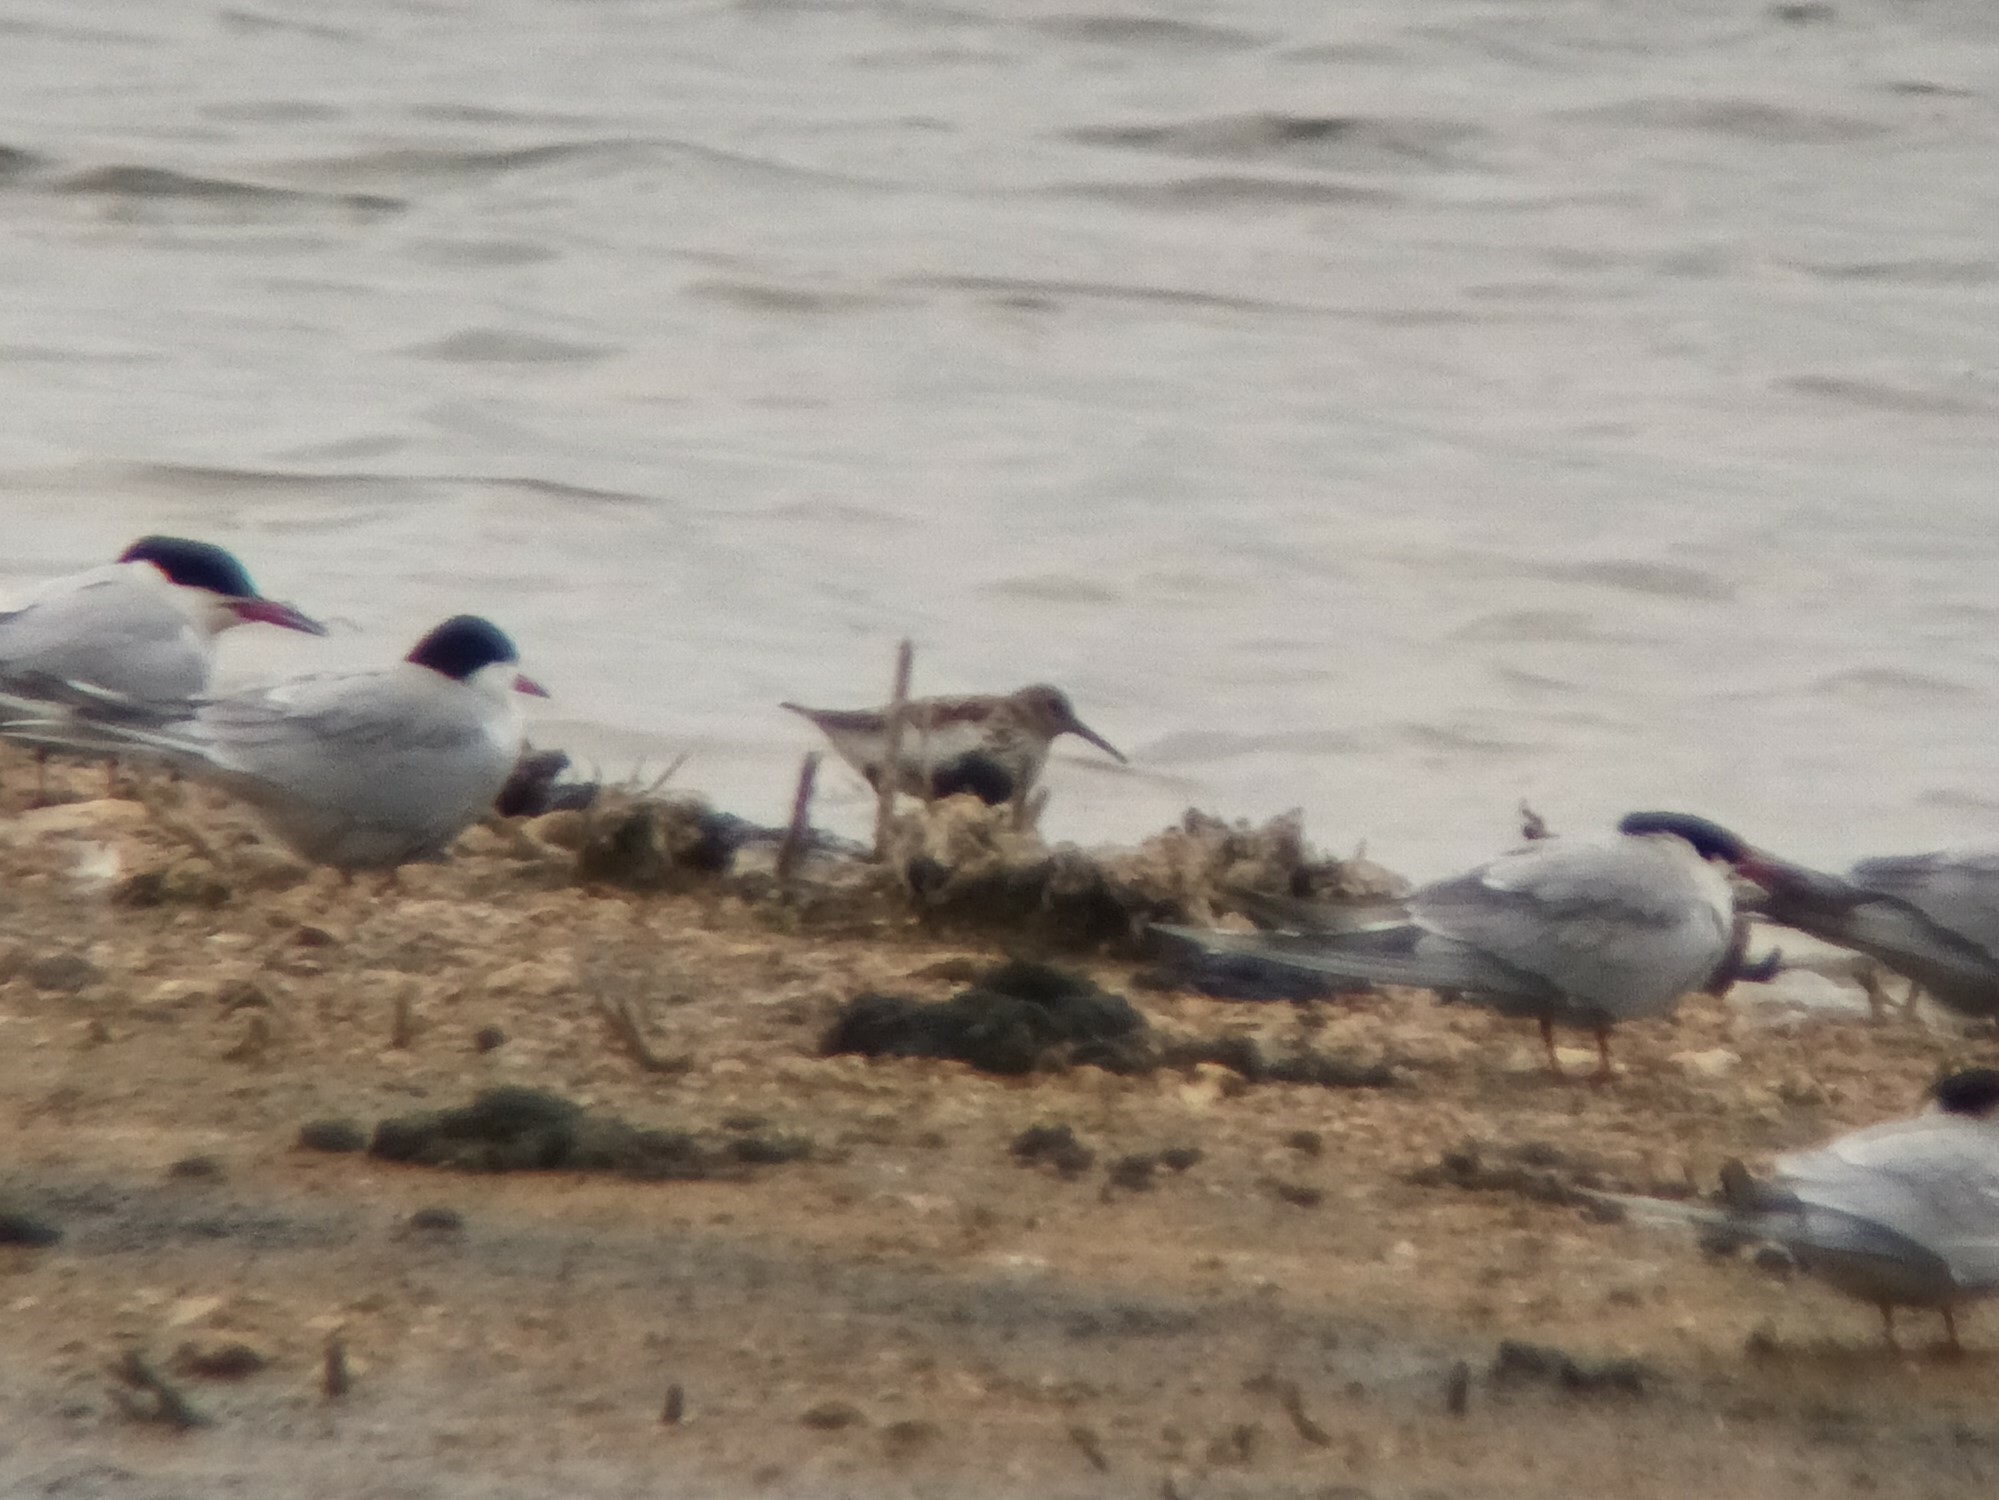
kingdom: Animalia
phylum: Chordata
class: Aves
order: Charadriiformes
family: Scolopacidae
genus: Calidris
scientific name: Calidris alpina
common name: Dunlin
